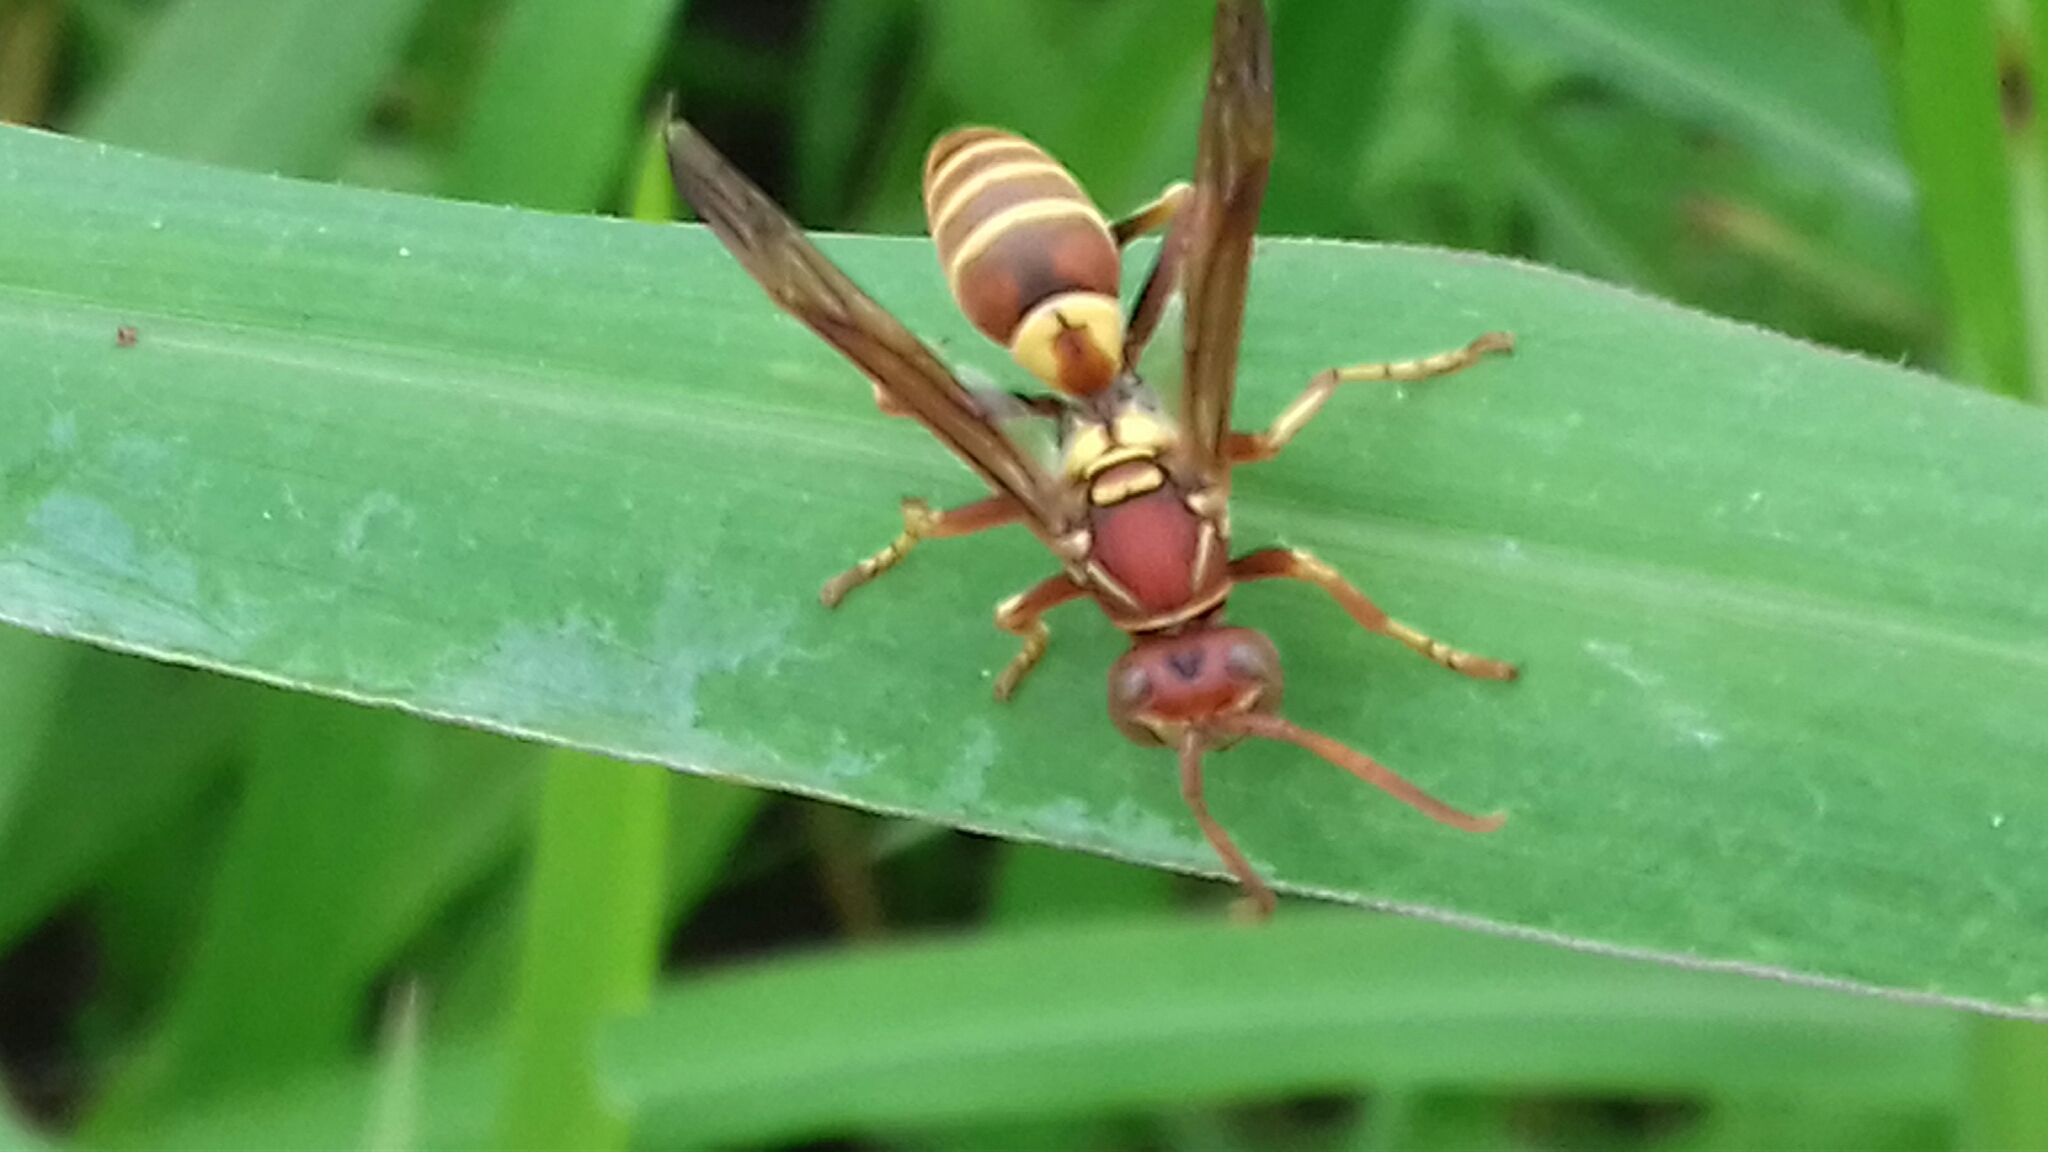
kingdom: Animalia
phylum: Arthropoda
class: Insecta
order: Hymenoptera
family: Eumenidae
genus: Polistes
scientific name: Polistes dorsalis
